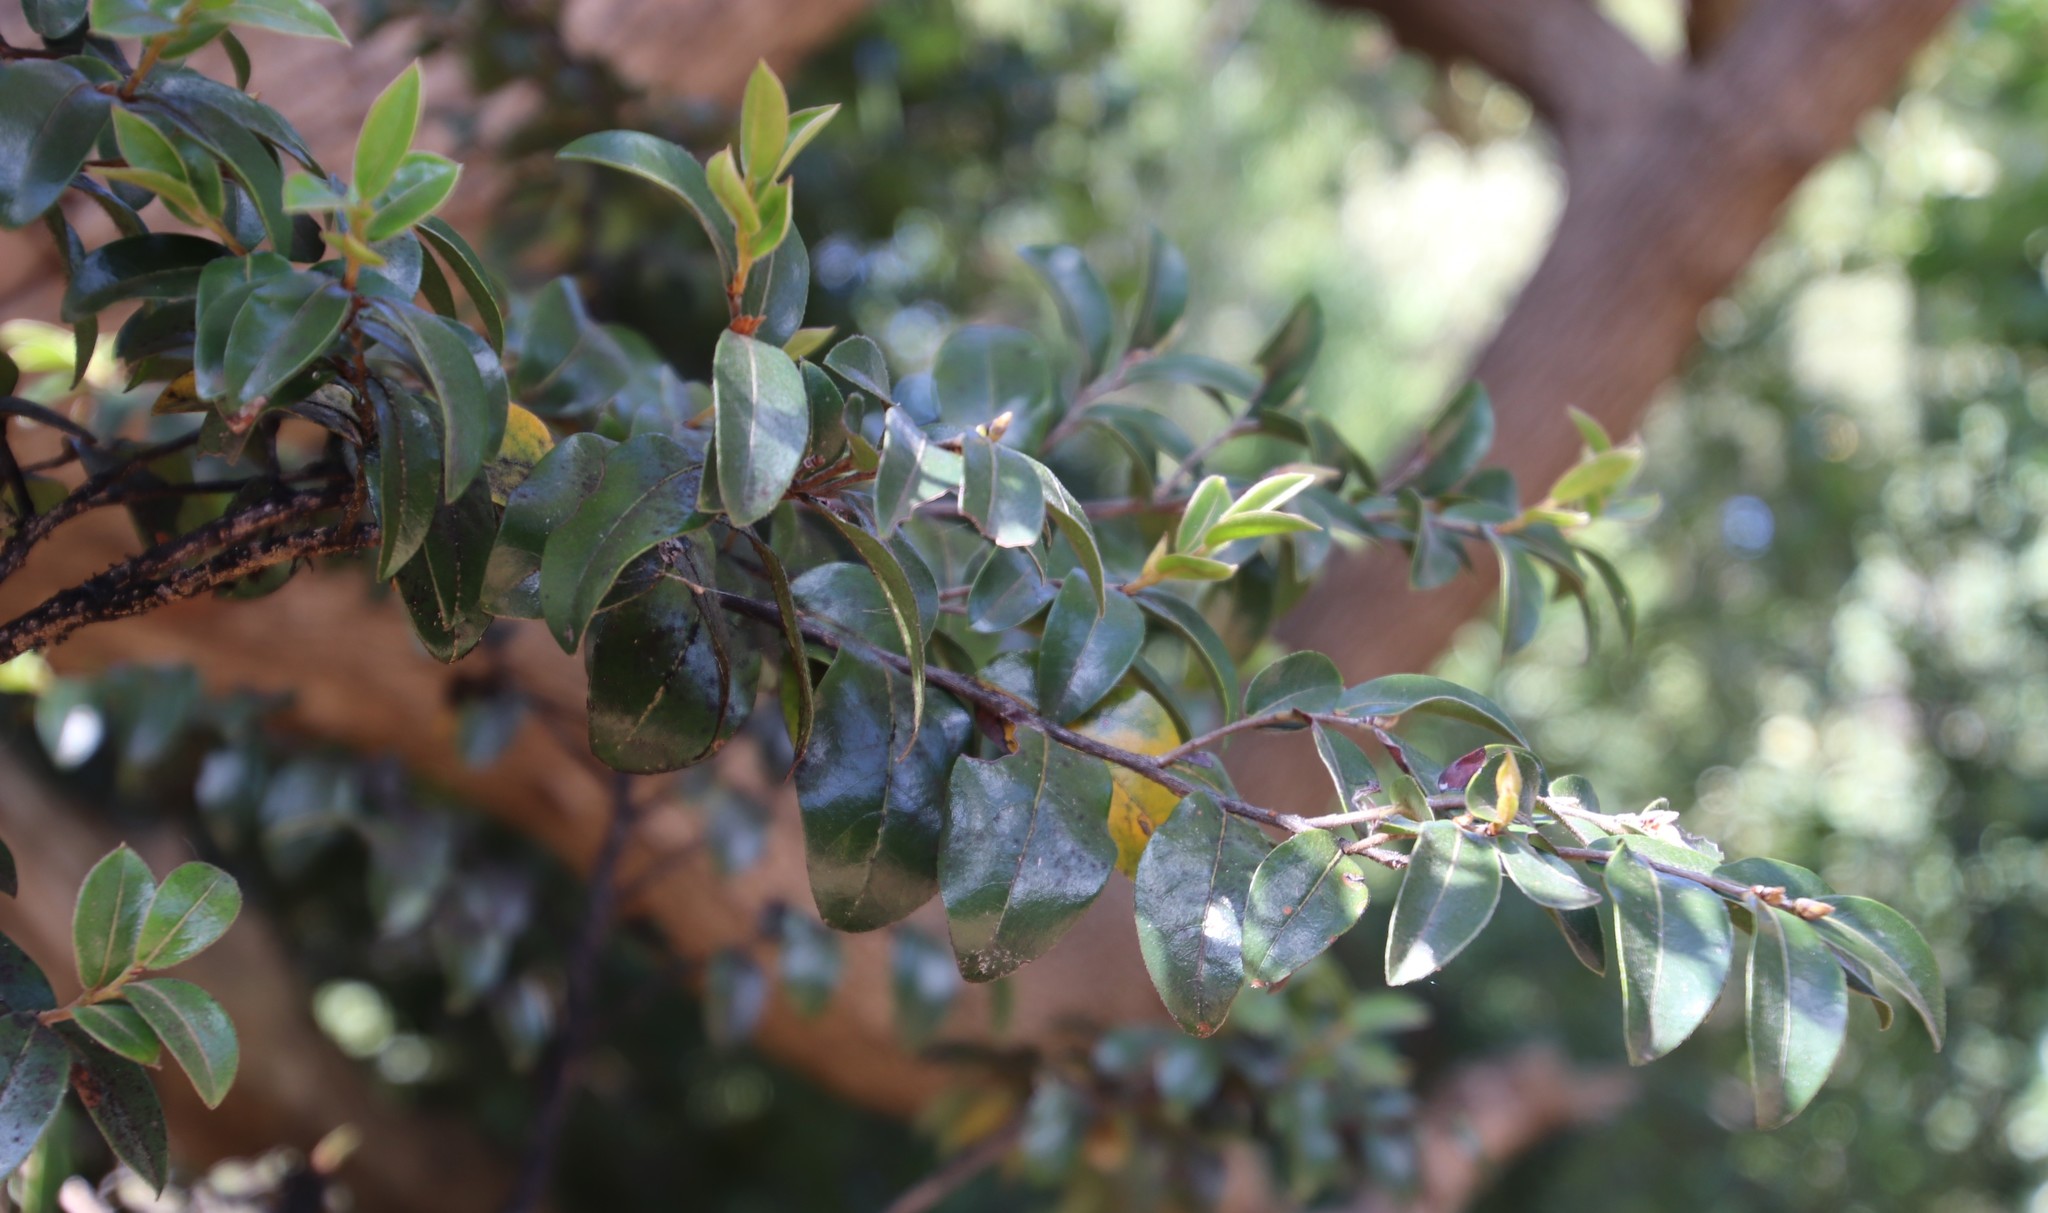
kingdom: Plantae
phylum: Tracheophyta
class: Magnoliopsida
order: Ericales
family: Ebenaceae
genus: Diospyros
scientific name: Diospyros whyteana
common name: Bladder-nut
